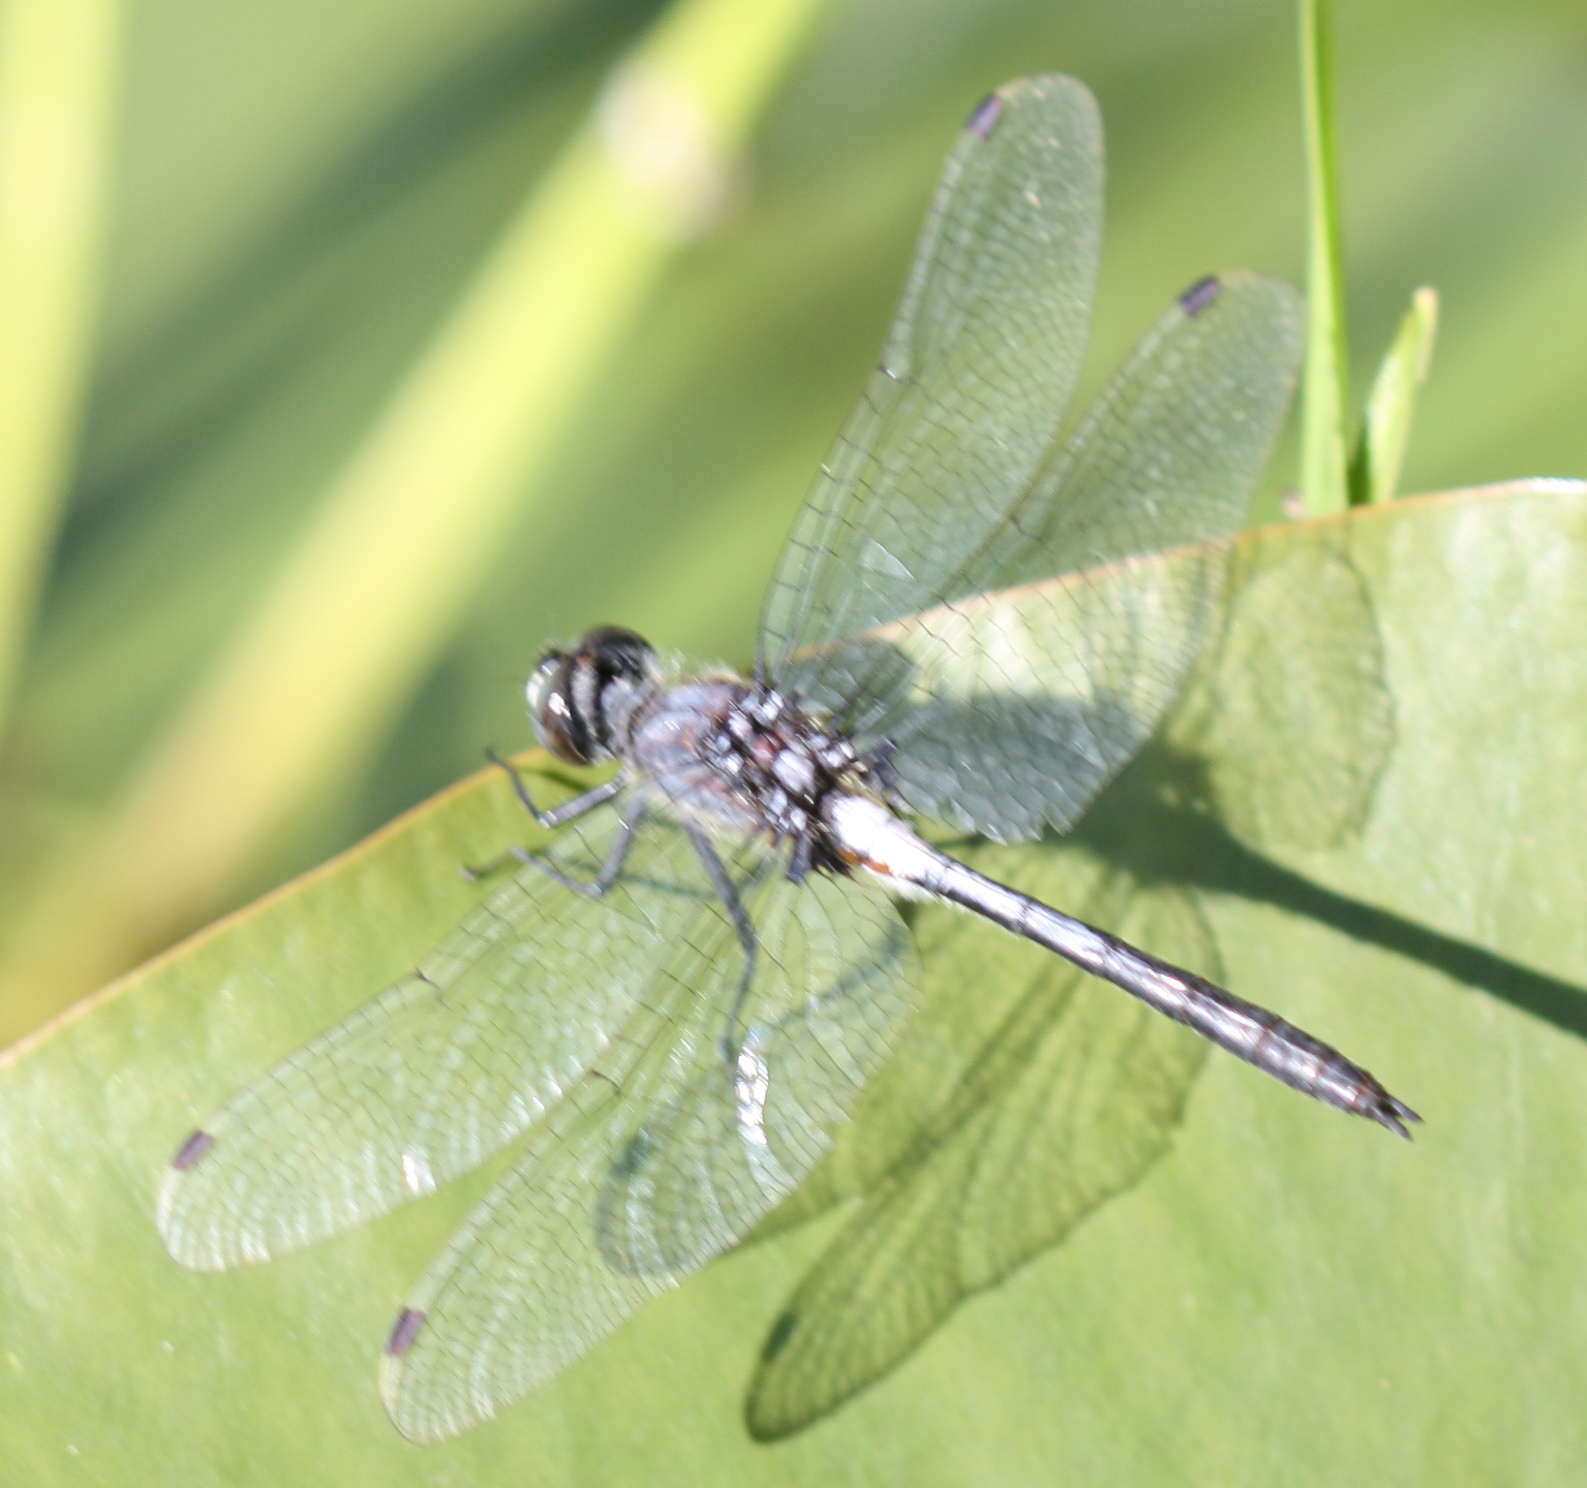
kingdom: Animalia
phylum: Arthropoda
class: Insecta
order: Odonata
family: Libellulidae
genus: Leucorrhinia
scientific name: Leucorrhinia proxima
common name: Belted whiteface
